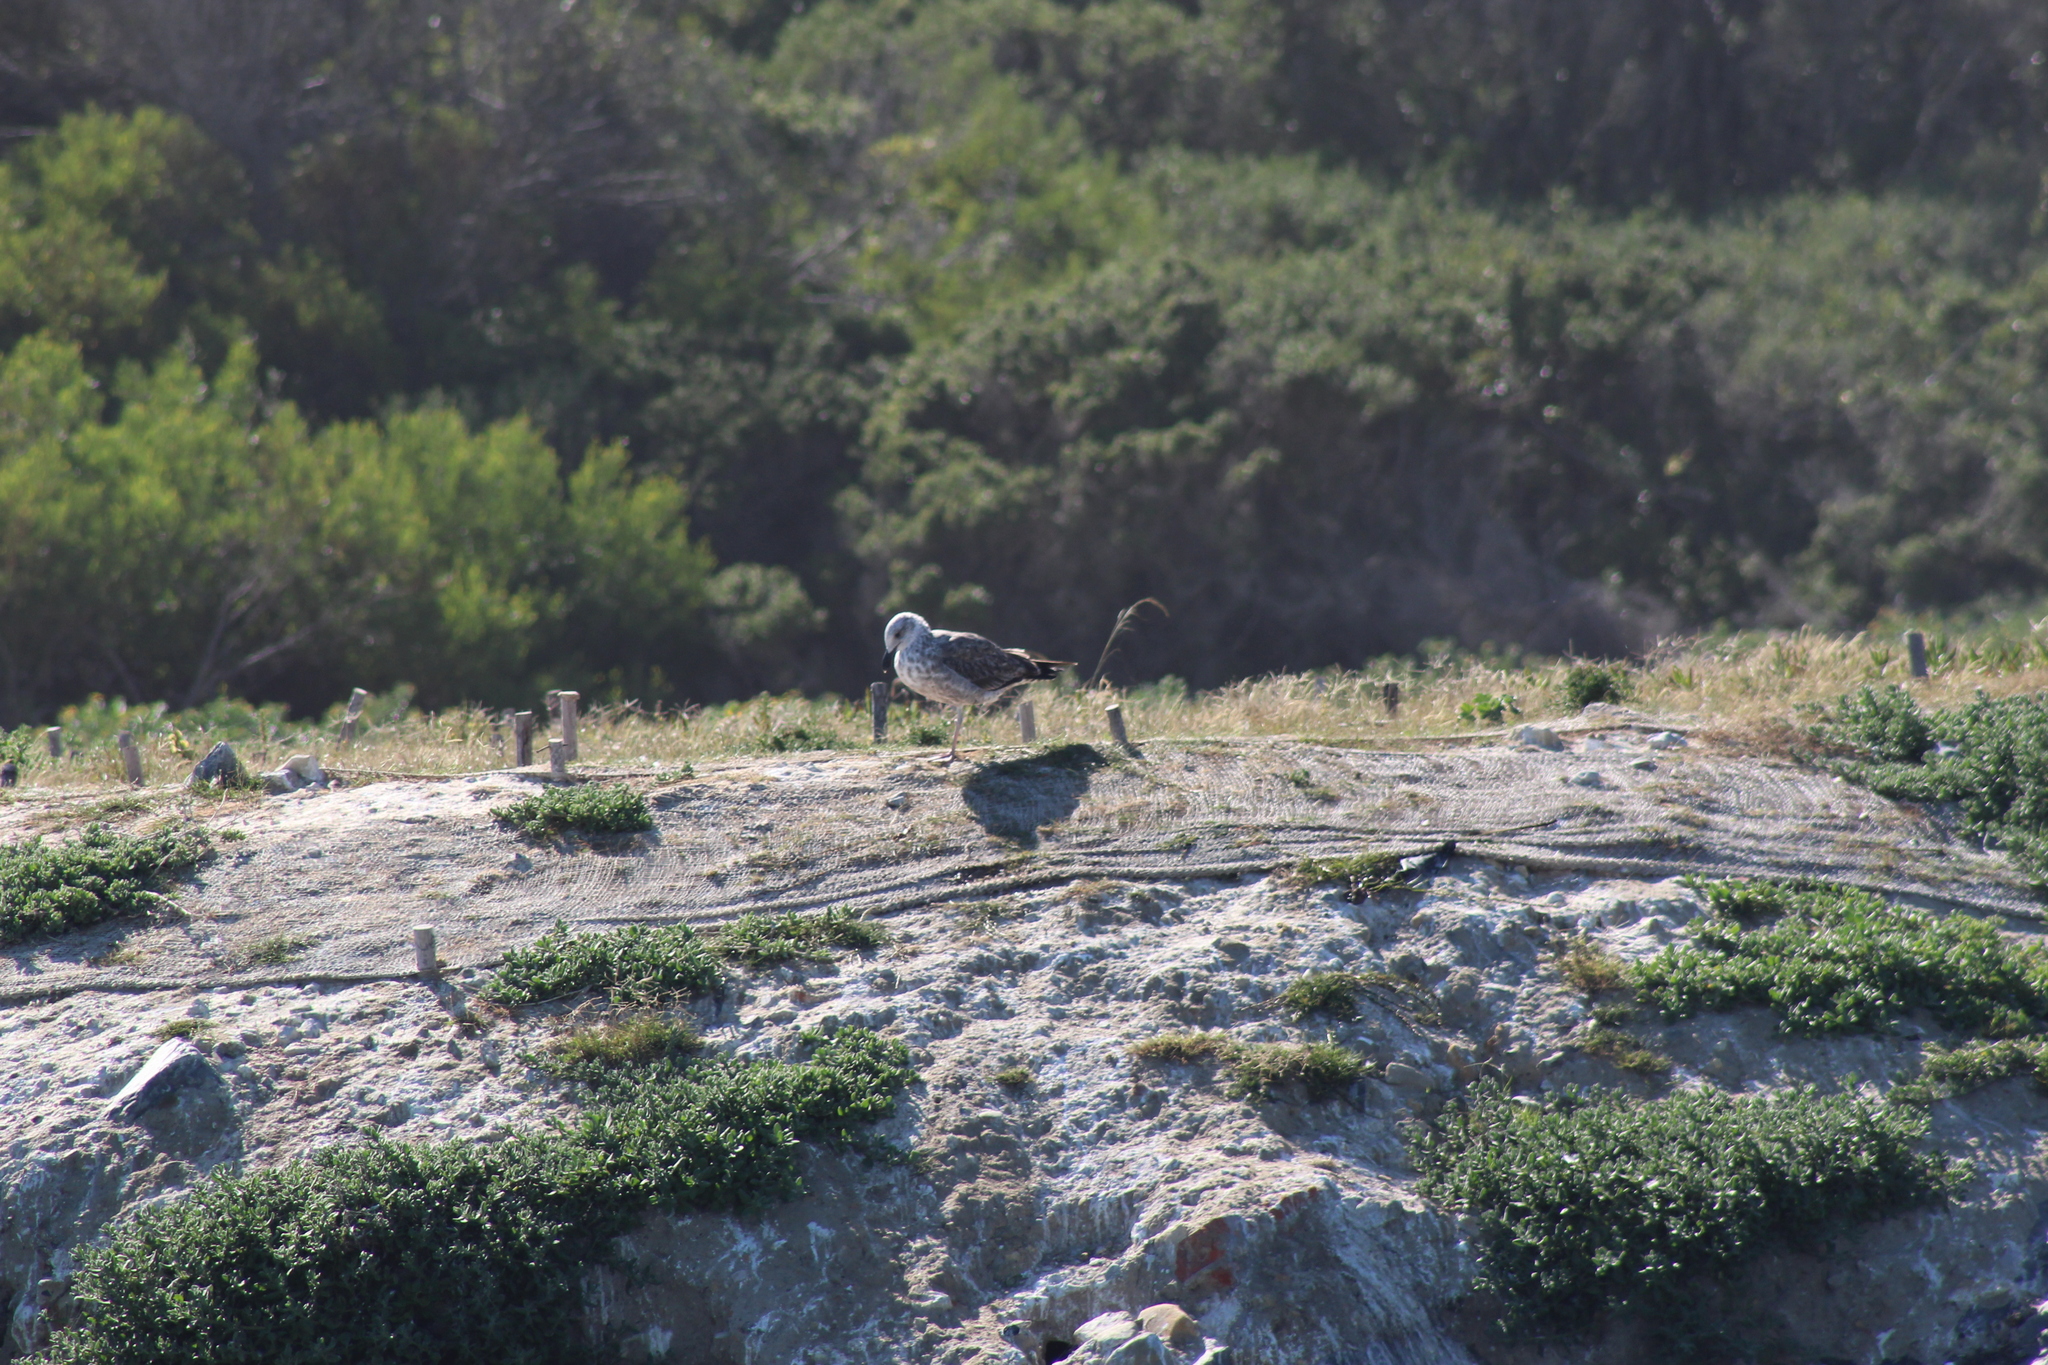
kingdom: Animalia
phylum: Chordata
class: Aves
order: Charadriiformes
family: Laridae
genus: Larus
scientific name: Larus dominicanus
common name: Kelp gull
